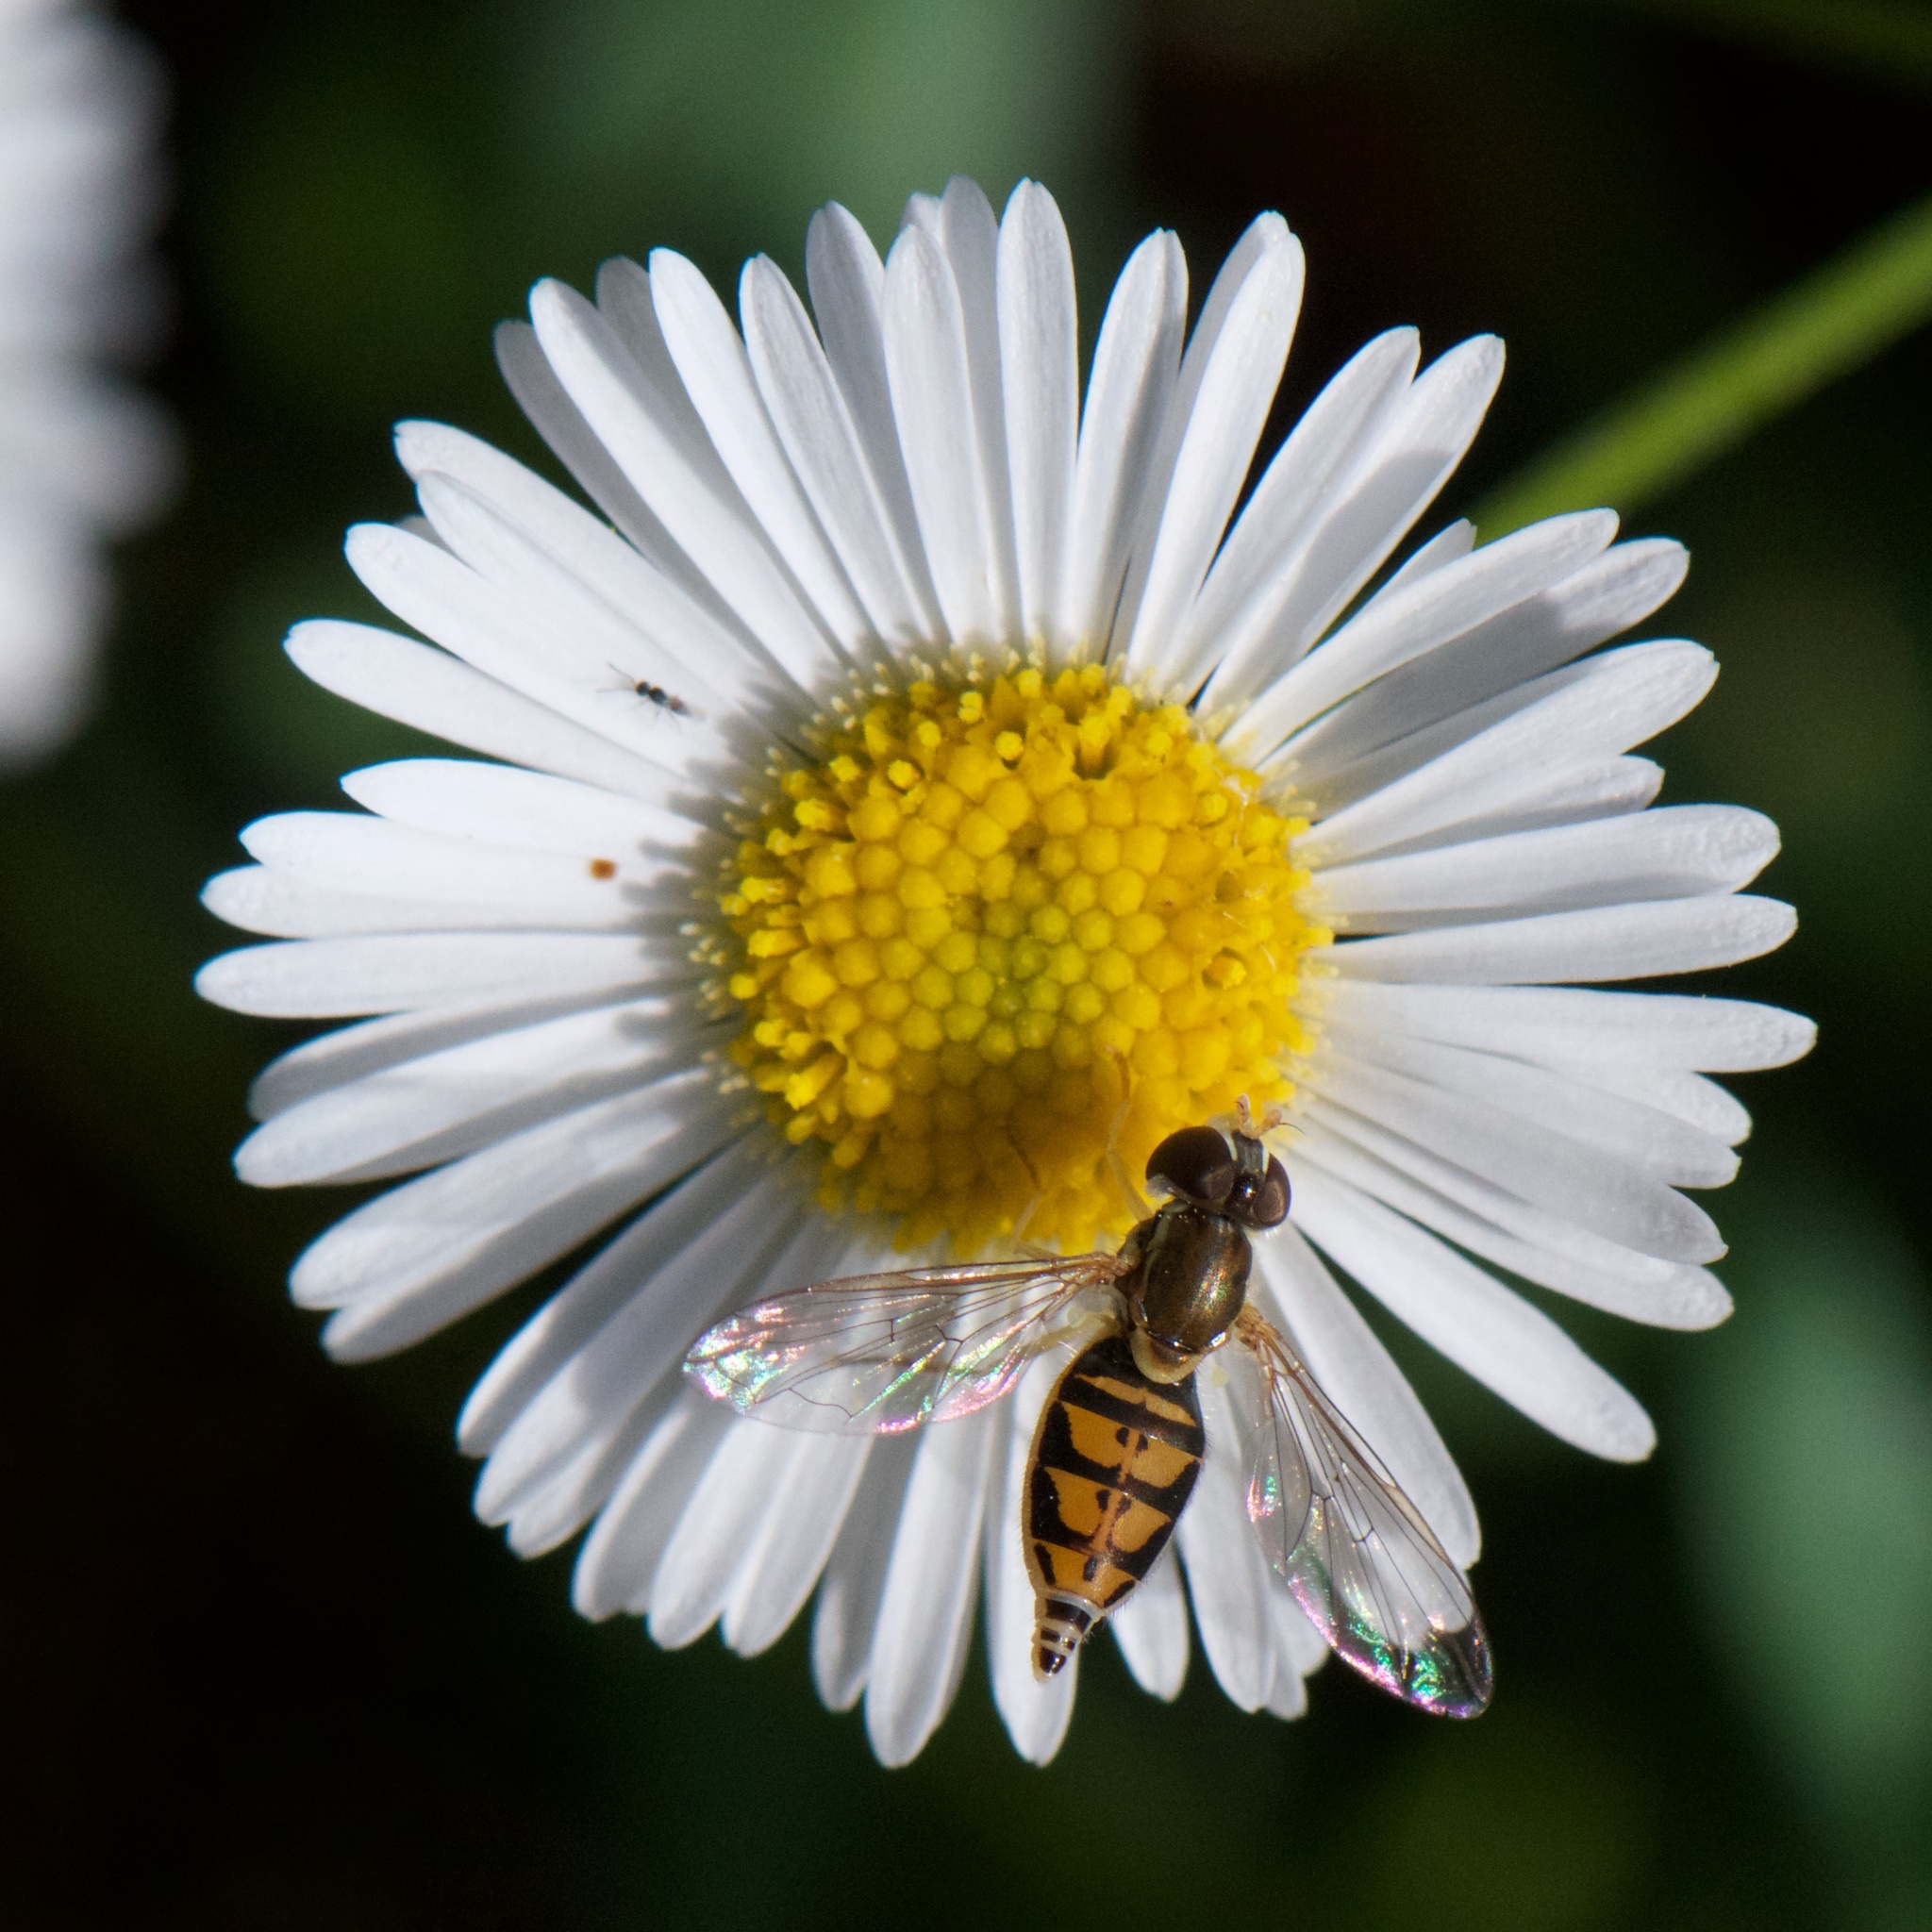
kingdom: Animalia
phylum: Arthropoda
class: Insecta
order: Diptera
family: Syrphidae
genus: Toxomerus
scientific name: Toxomerus marginatus
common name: Syrphid fly
